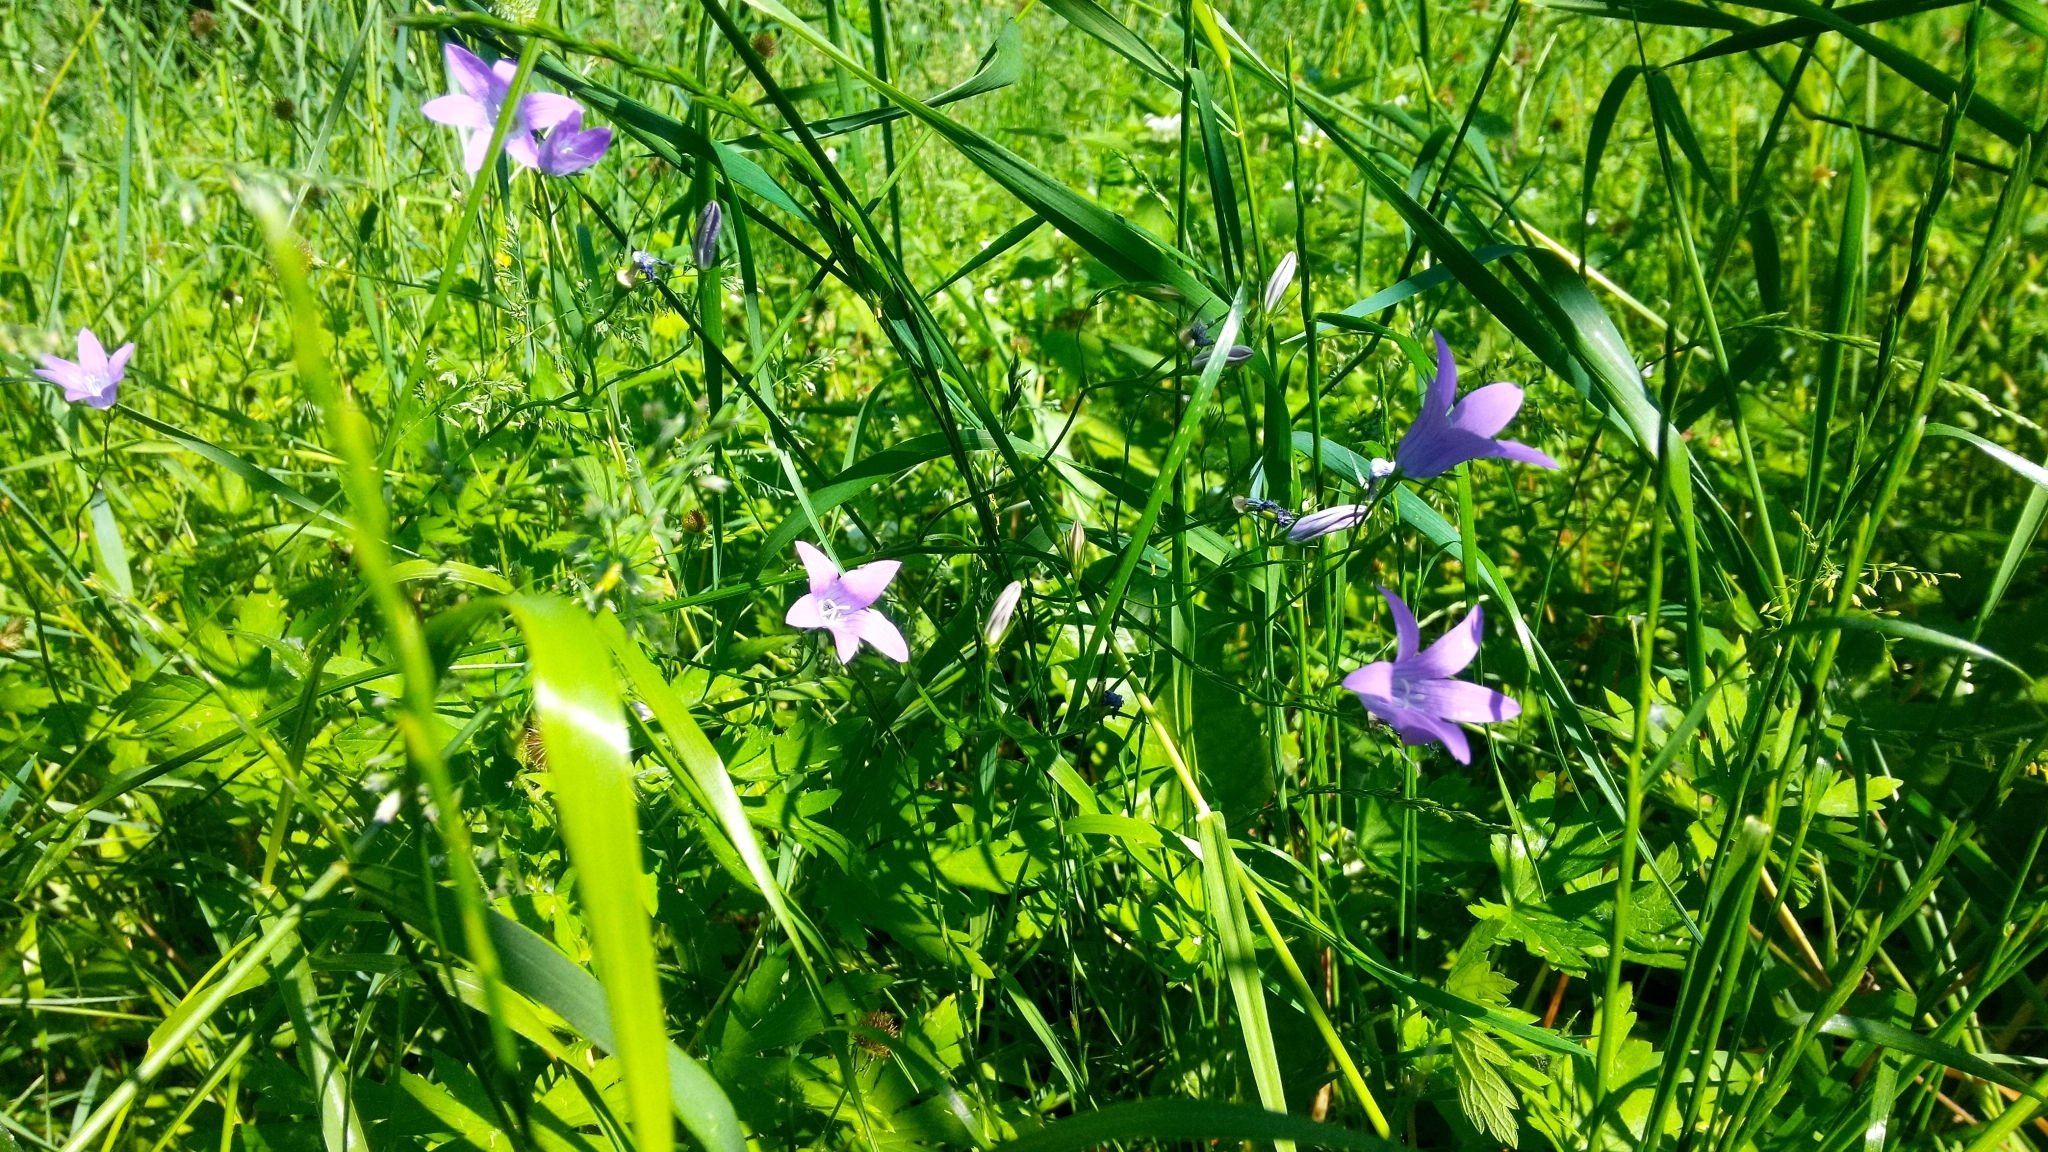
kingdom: Plantae
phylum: Tracheophyta
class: Magnoliopsida
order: Asterales
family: Campanulaceae
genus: Campanula
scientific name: Campanula patula
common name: Spreading bellflower
